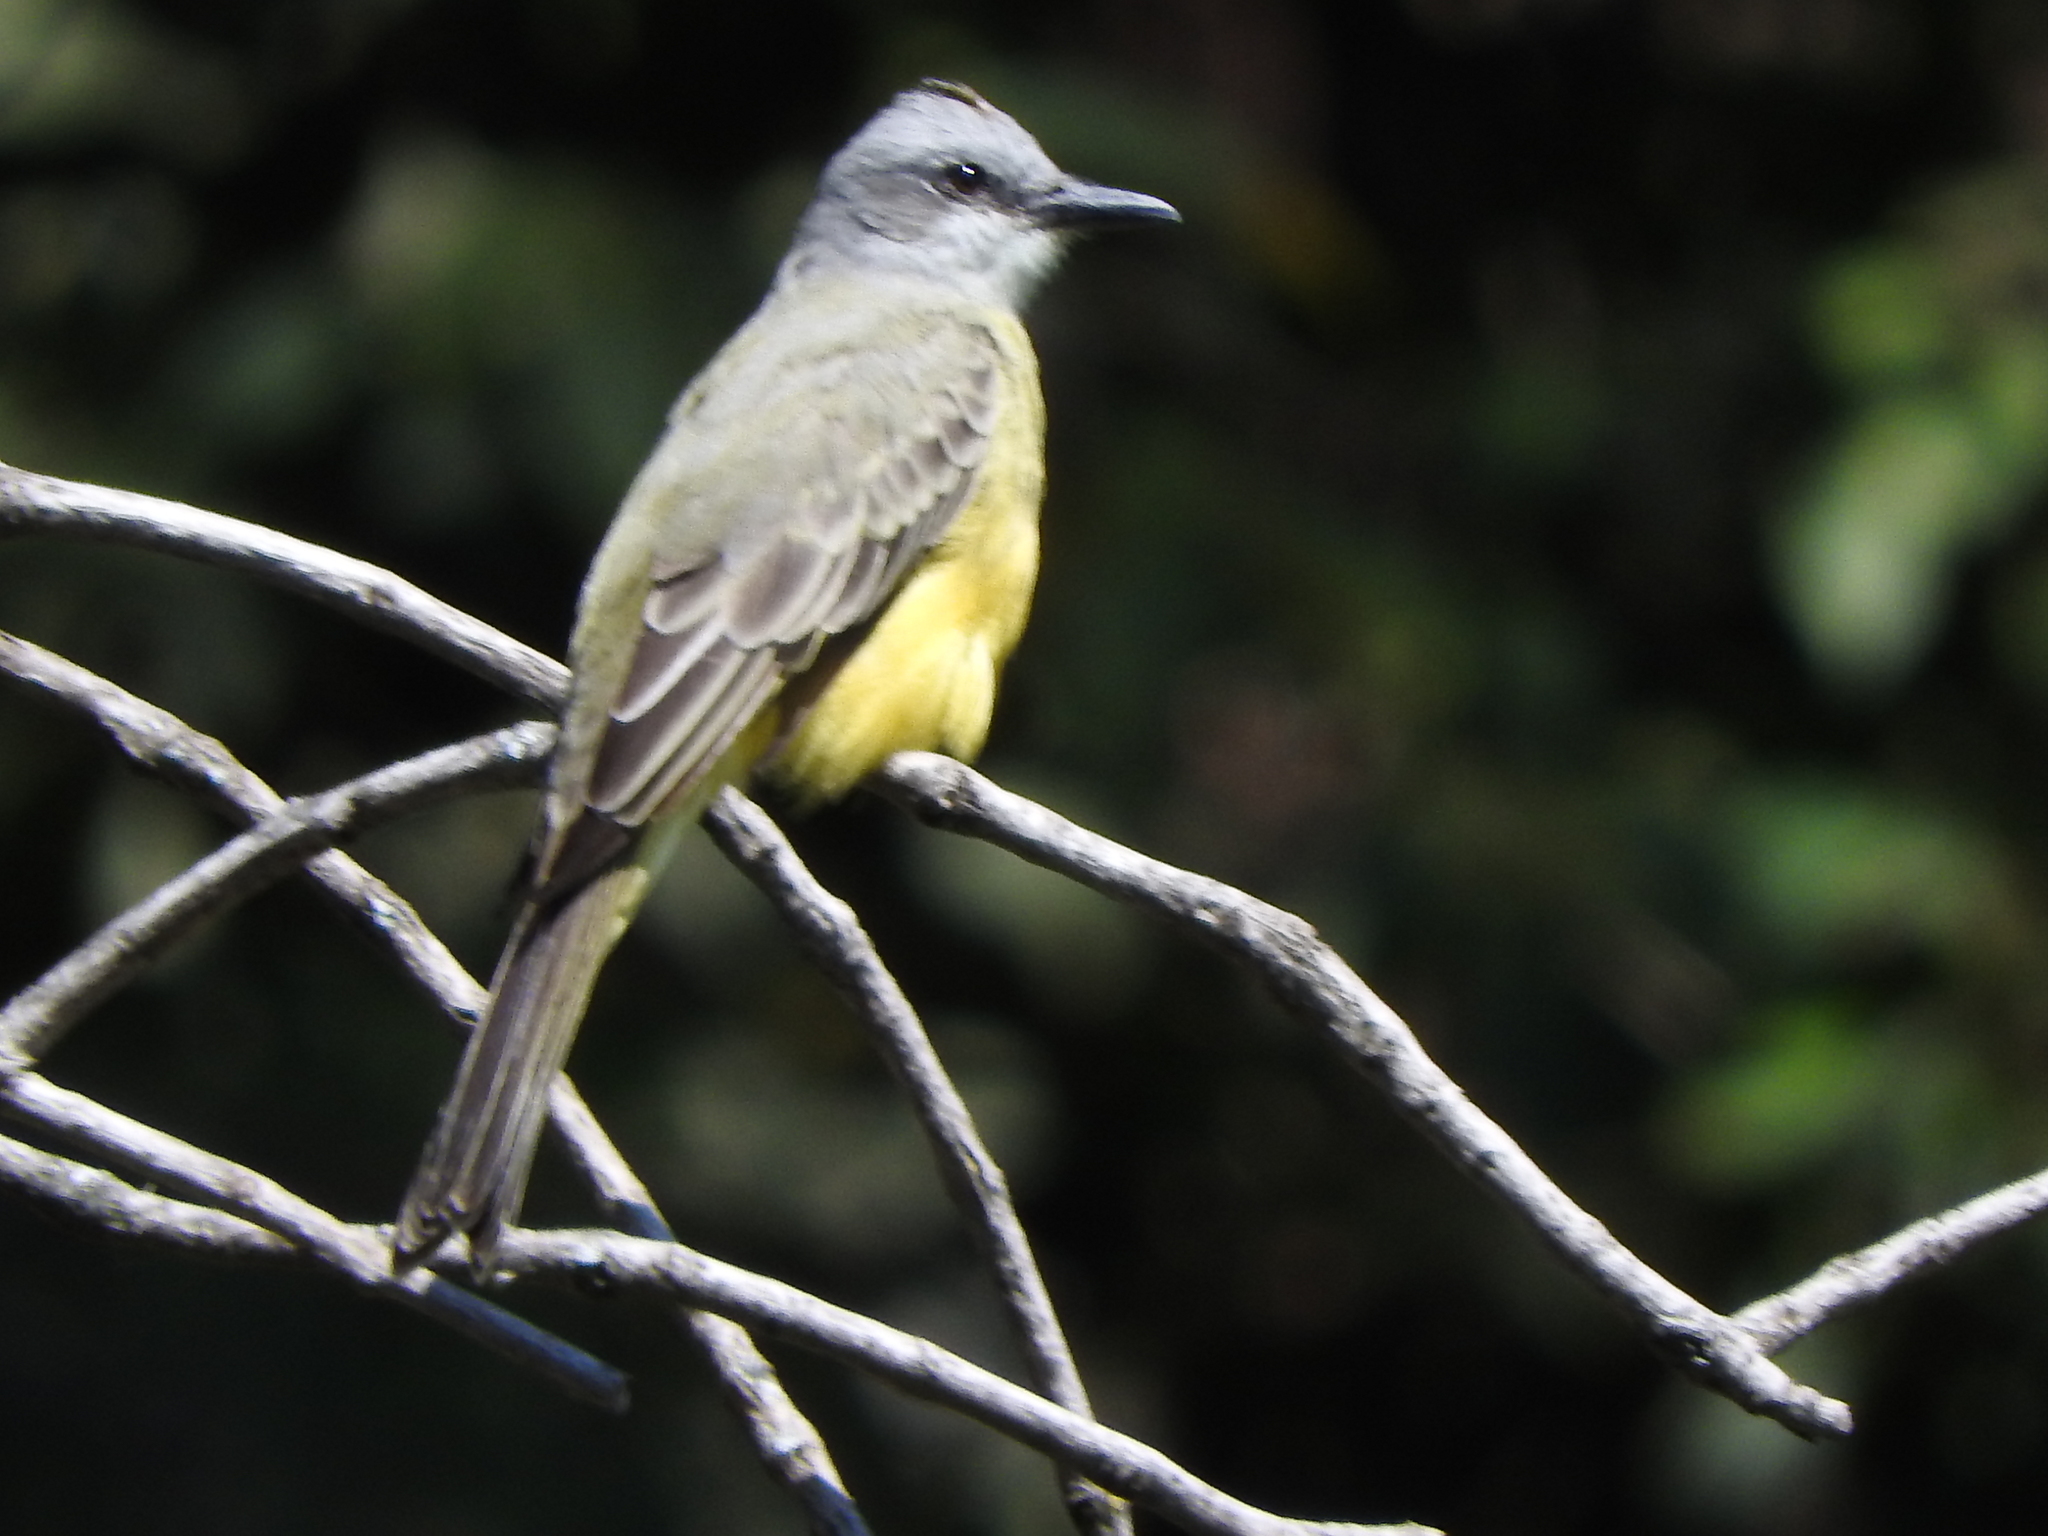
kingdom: Animalia
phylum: Chordata
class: Aves
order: Passeriformes
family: Tyrannidae
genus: Tyrannus
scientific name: Tyrannus melancholicus
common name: Tropical kingbird
